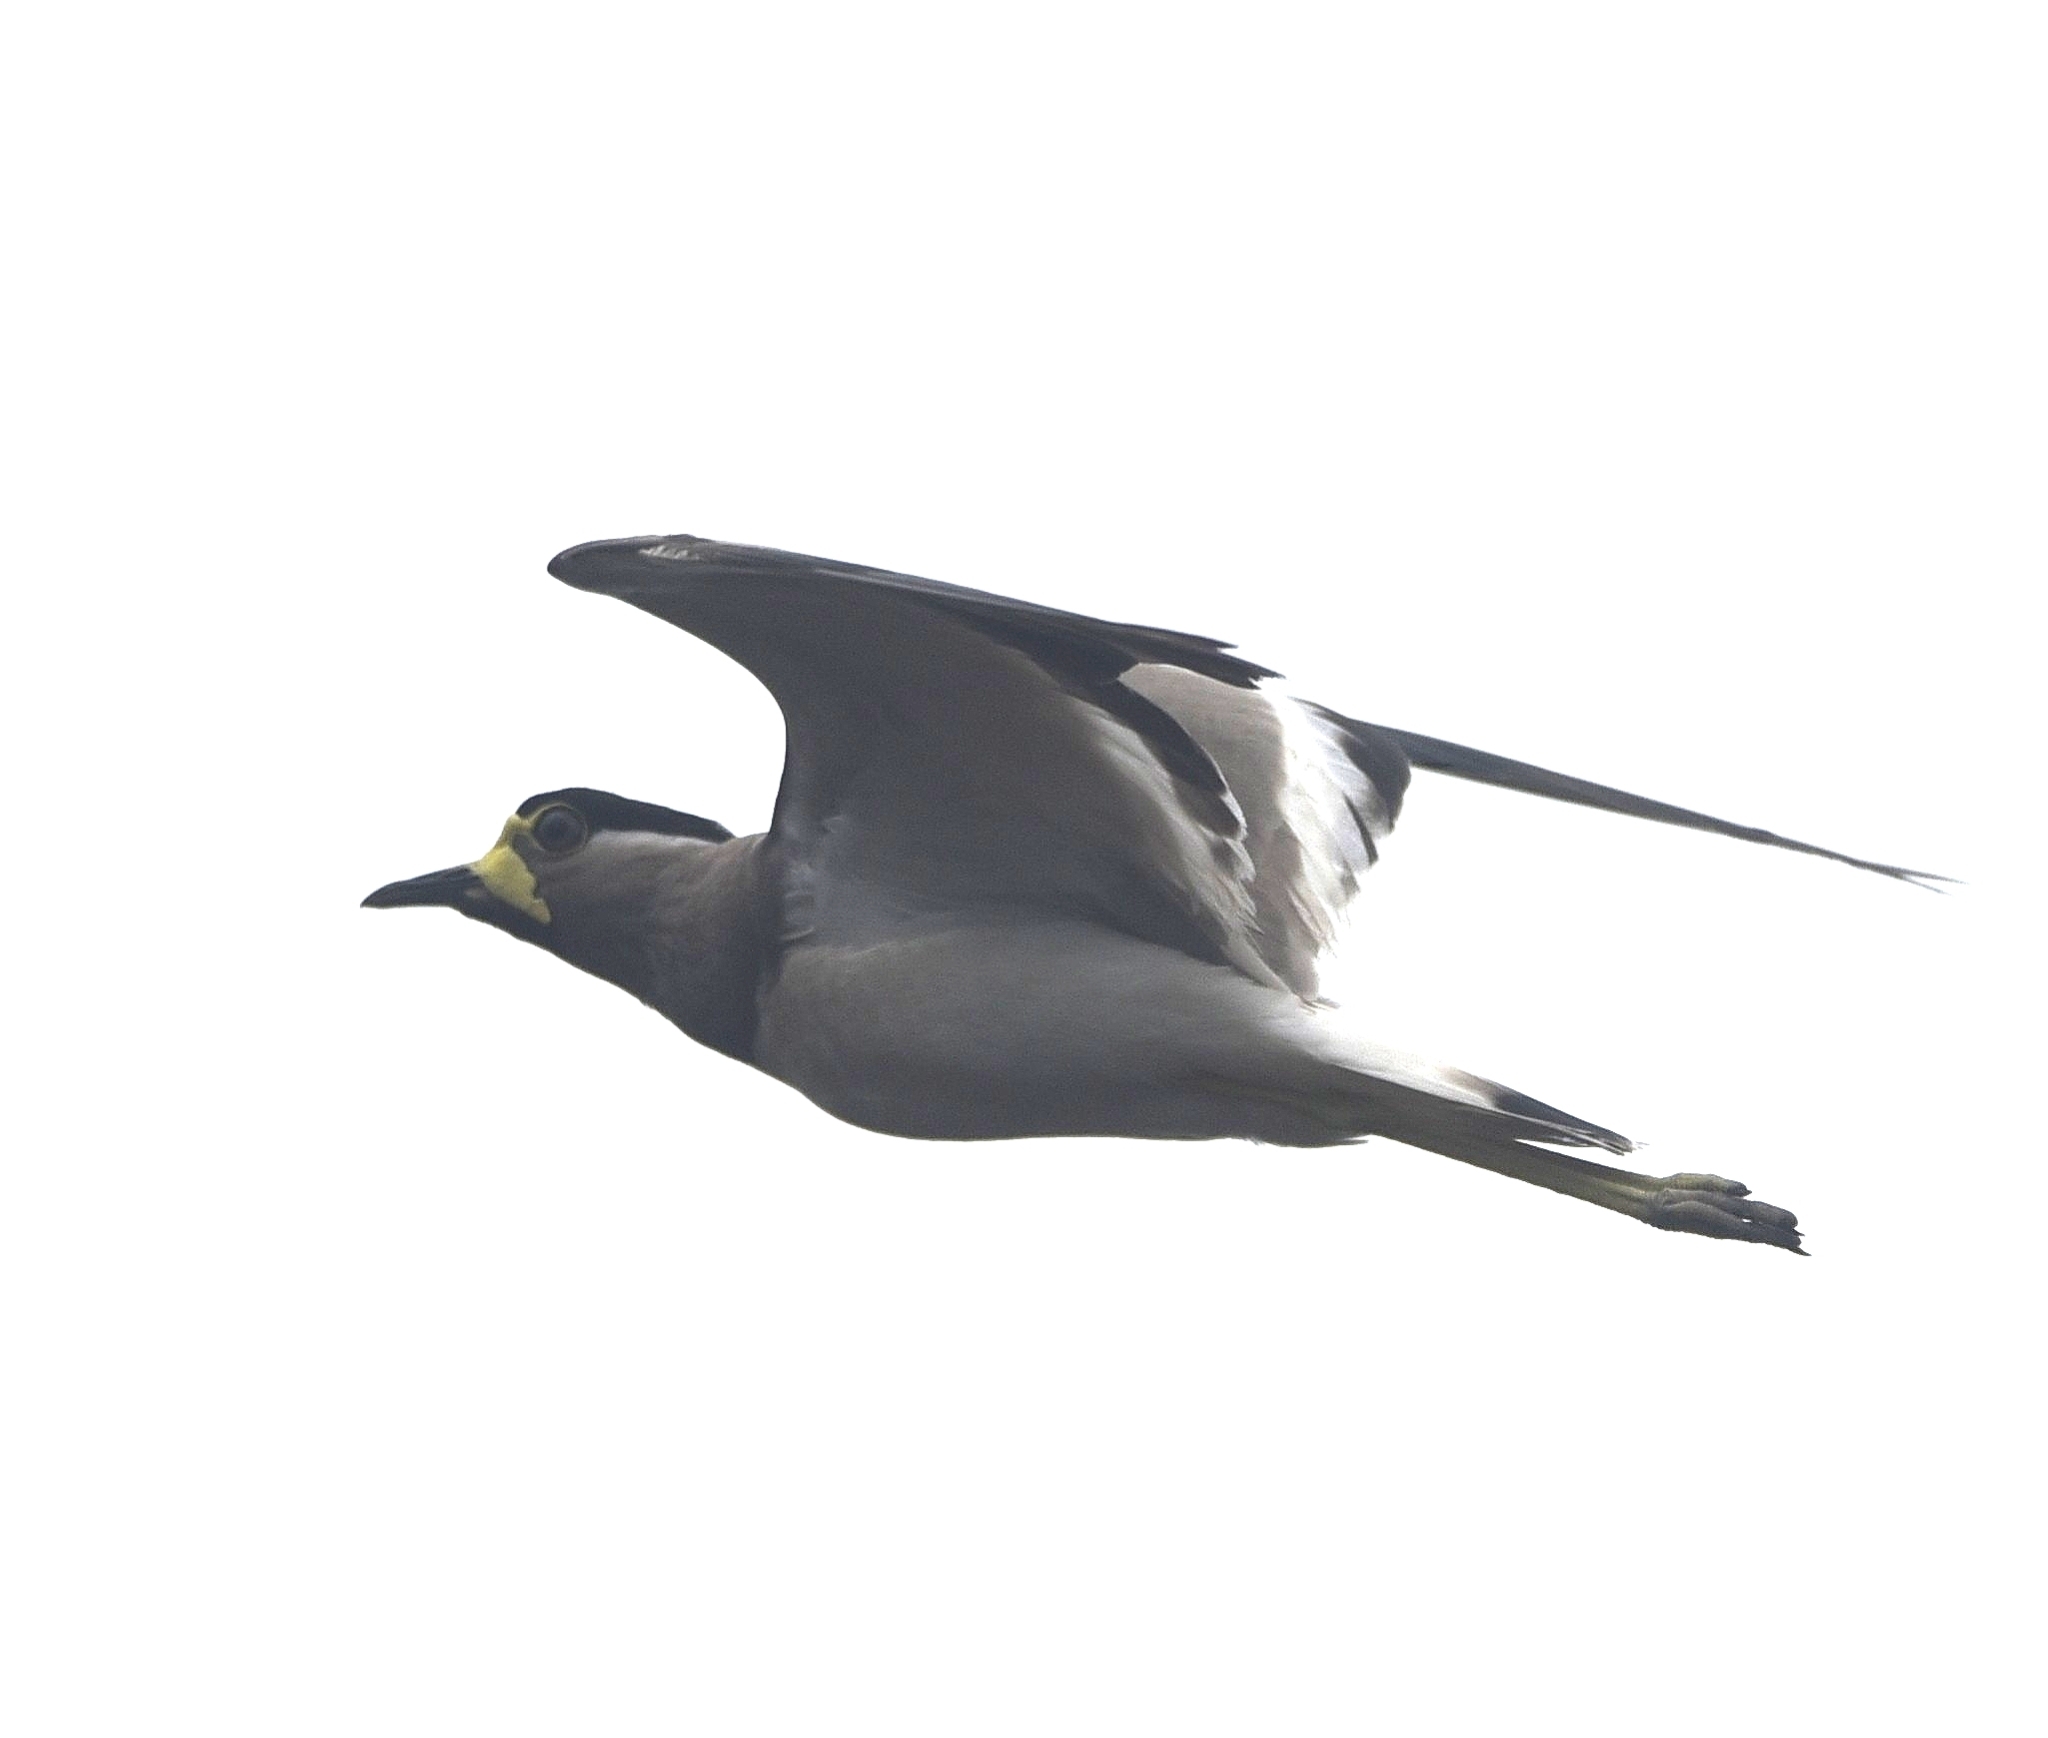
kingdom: Animalia
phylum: Chordata
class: Aves
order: Charadriiformes
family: Charadriidae
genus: Vanellus
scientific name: Vanellus malabaricus
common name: Yellow-wattled lapwing
